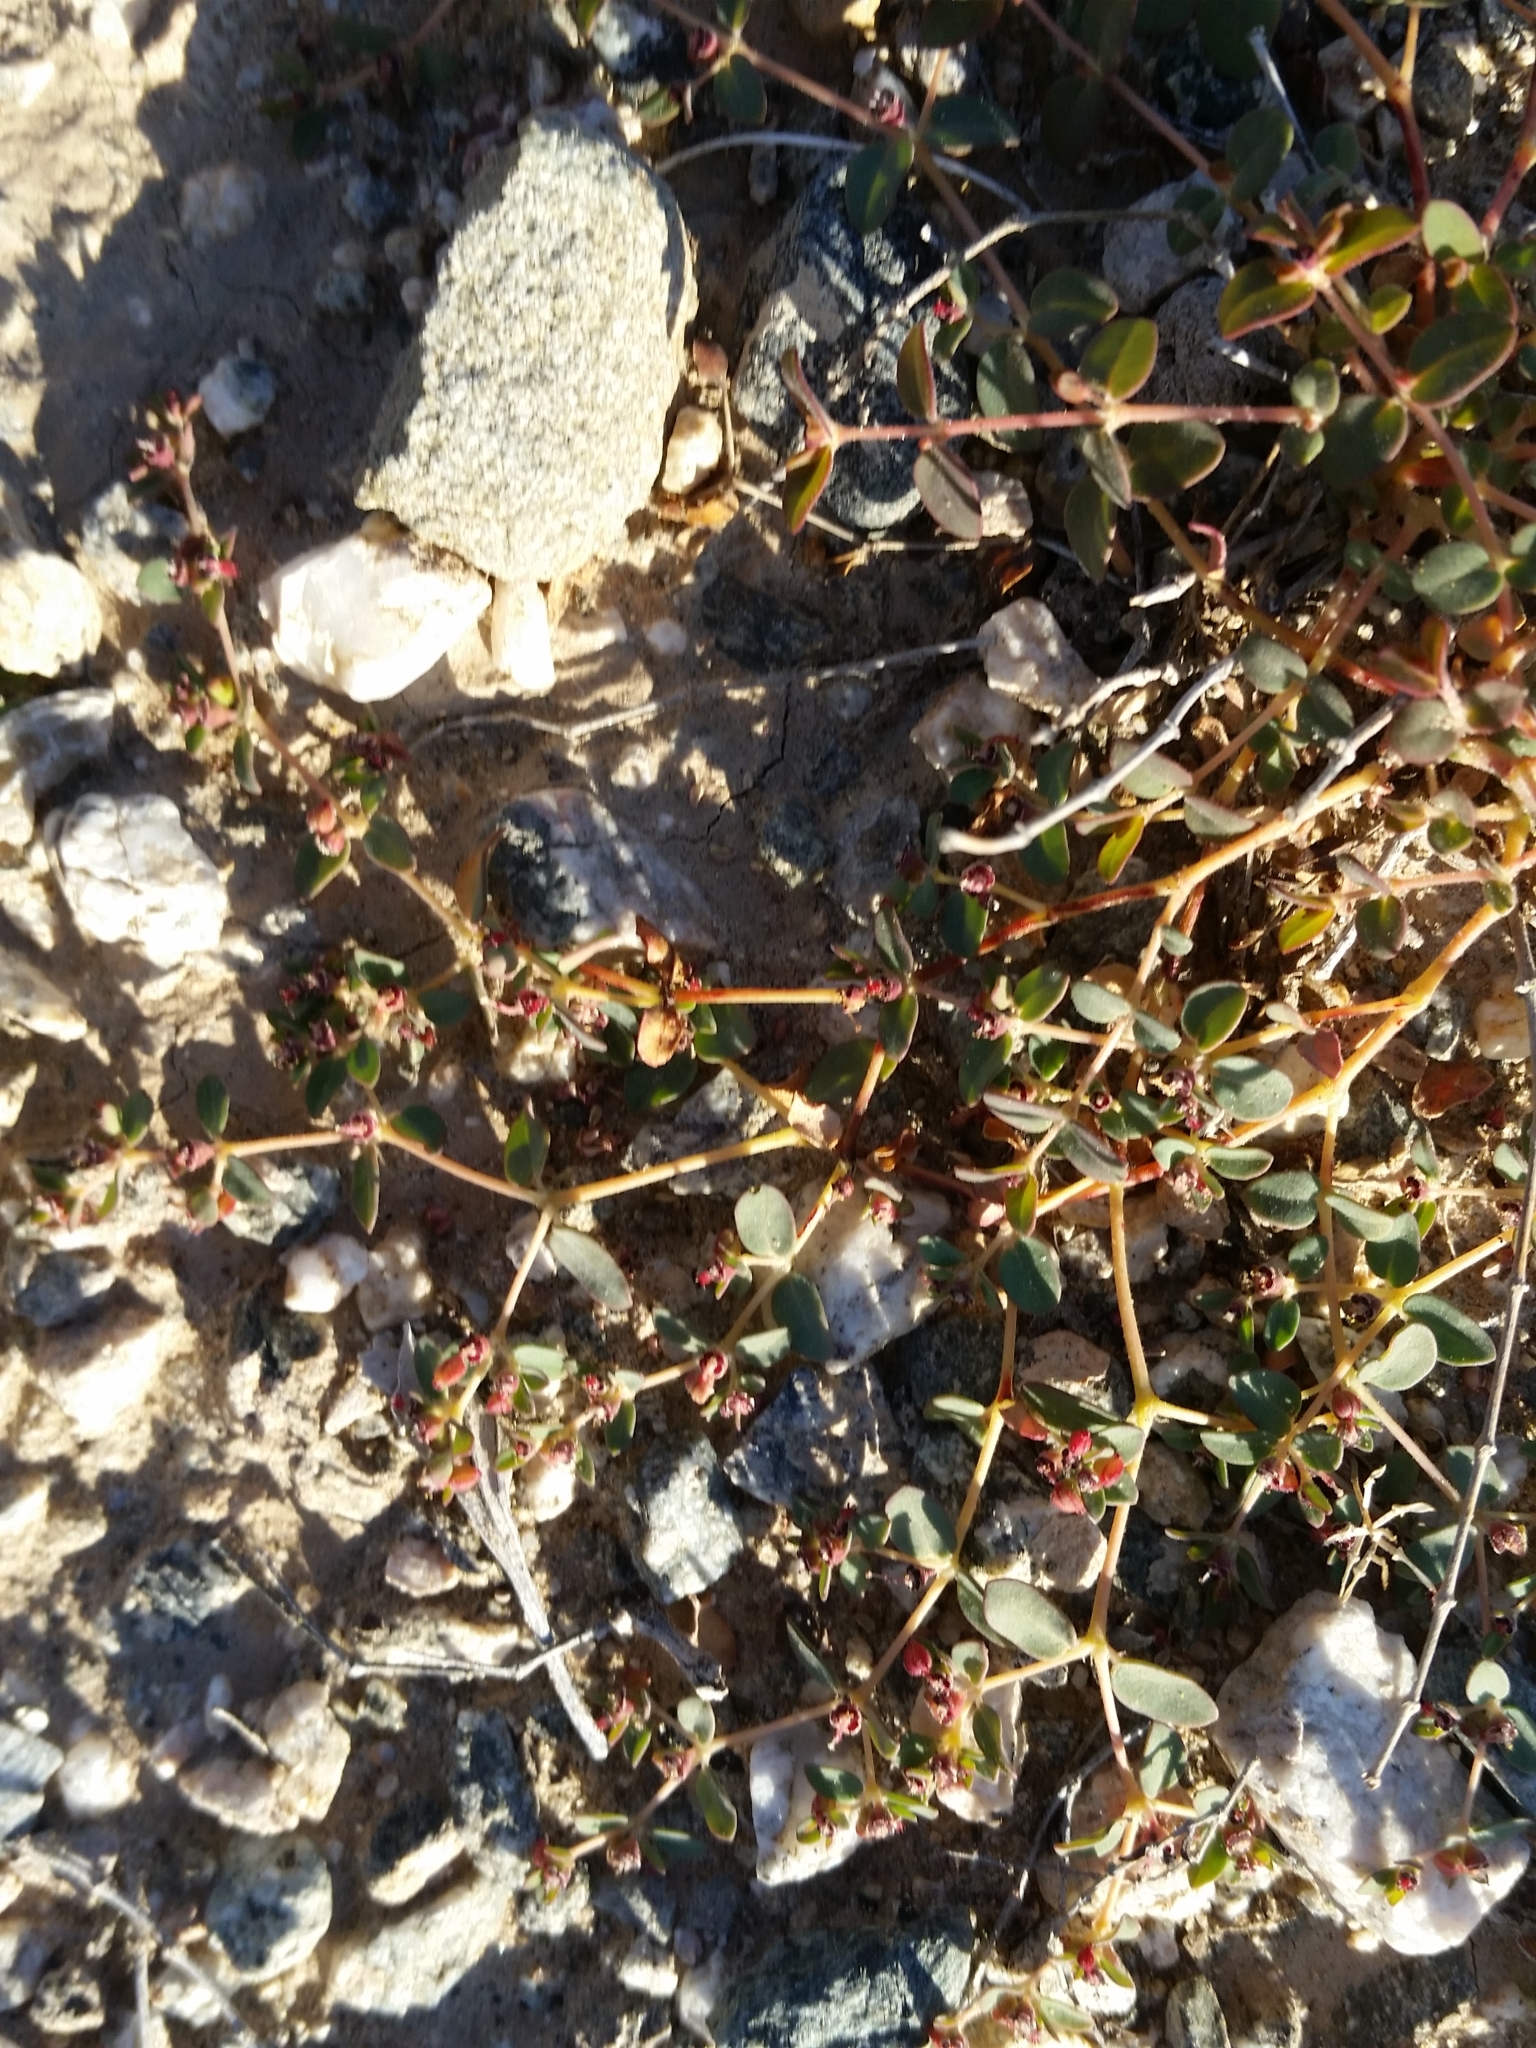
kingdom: Plantae
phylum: Tracheophyta
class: Magnoliopsida
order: Malpighiales
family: Euphorbiaceae
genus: Euphorbia
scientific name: Euphorbia polycarpa
